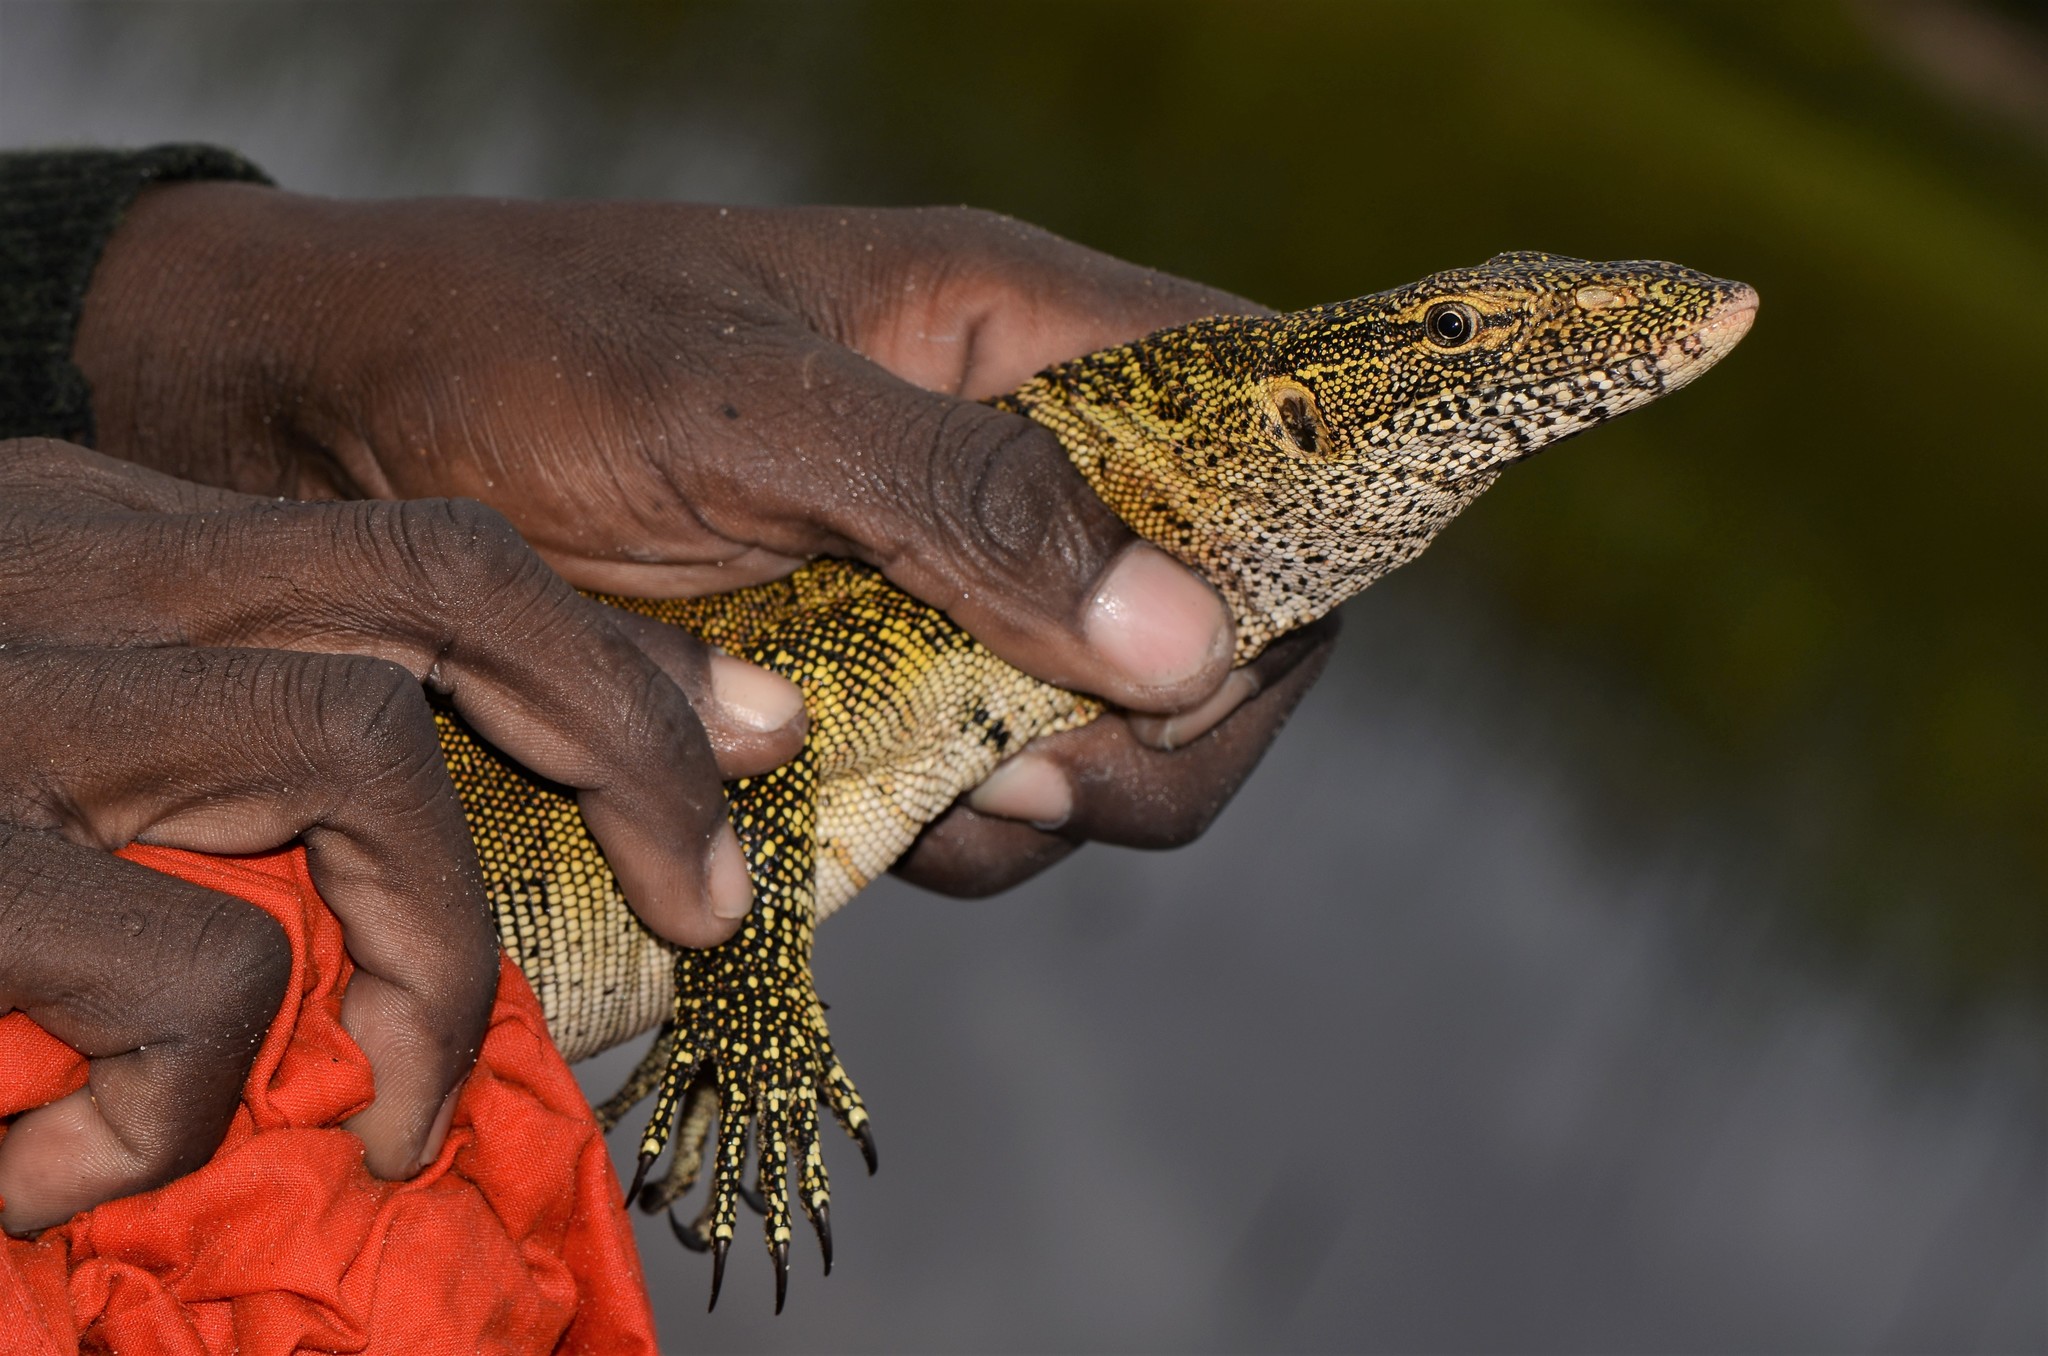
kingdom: Animalia
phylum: Chordata
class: Squamata
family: Varanidae
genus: Varanus
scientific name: Varanus niloticus
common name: Nile monitor
